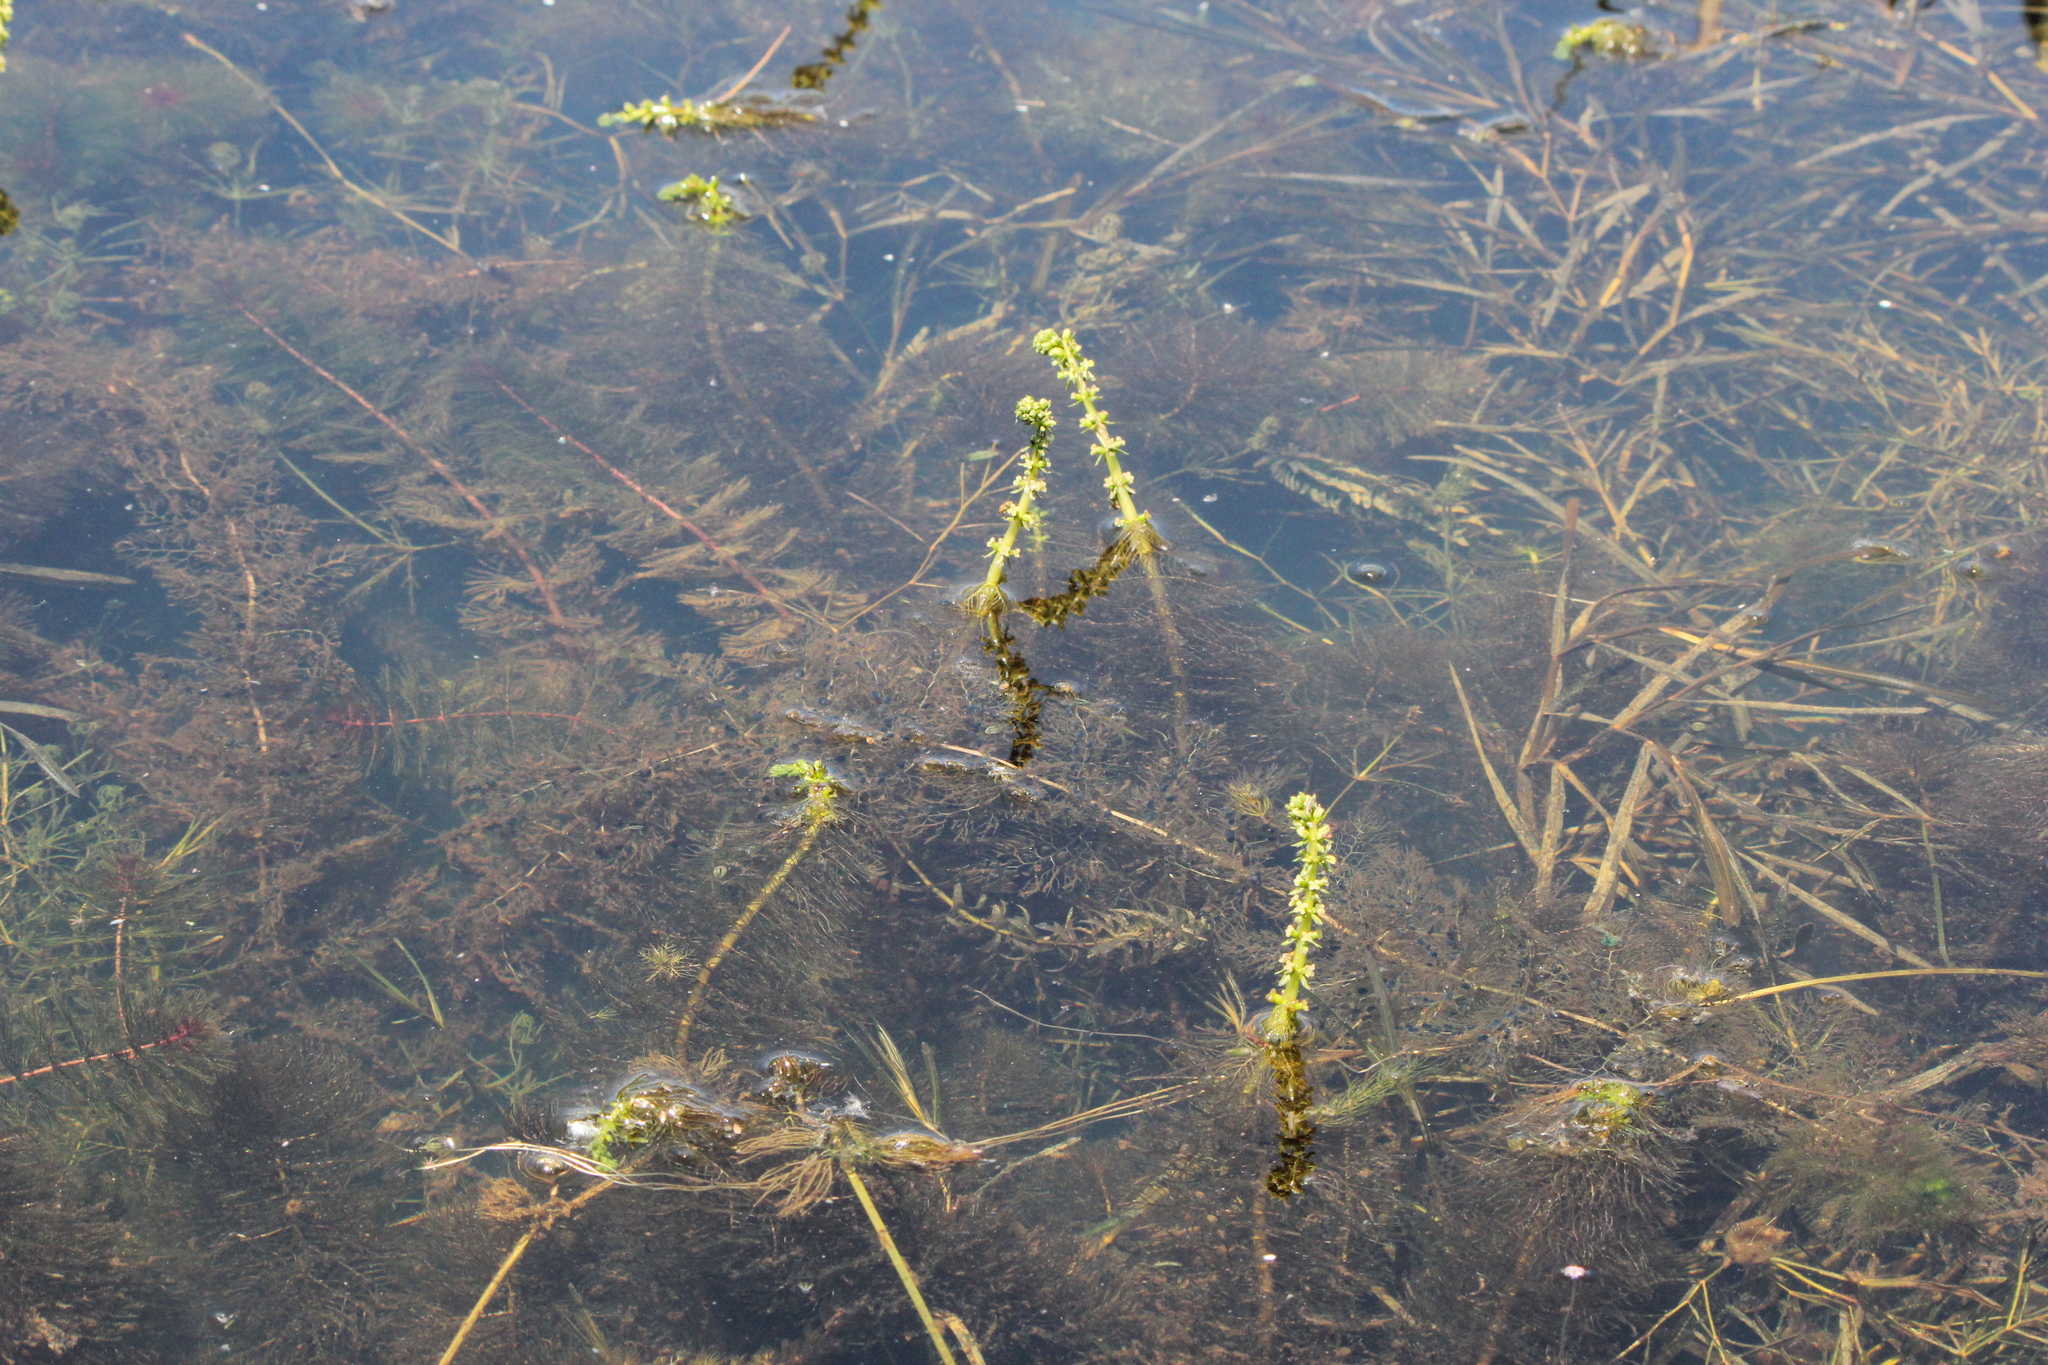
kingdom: Plantae
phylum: Tracheophyta
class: Magnoliopsida
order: Saxifragales
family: Haloragaceae
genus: Myriophyllum
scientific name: Myriophyllum verticillatum
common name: Whorled water-milfoil
